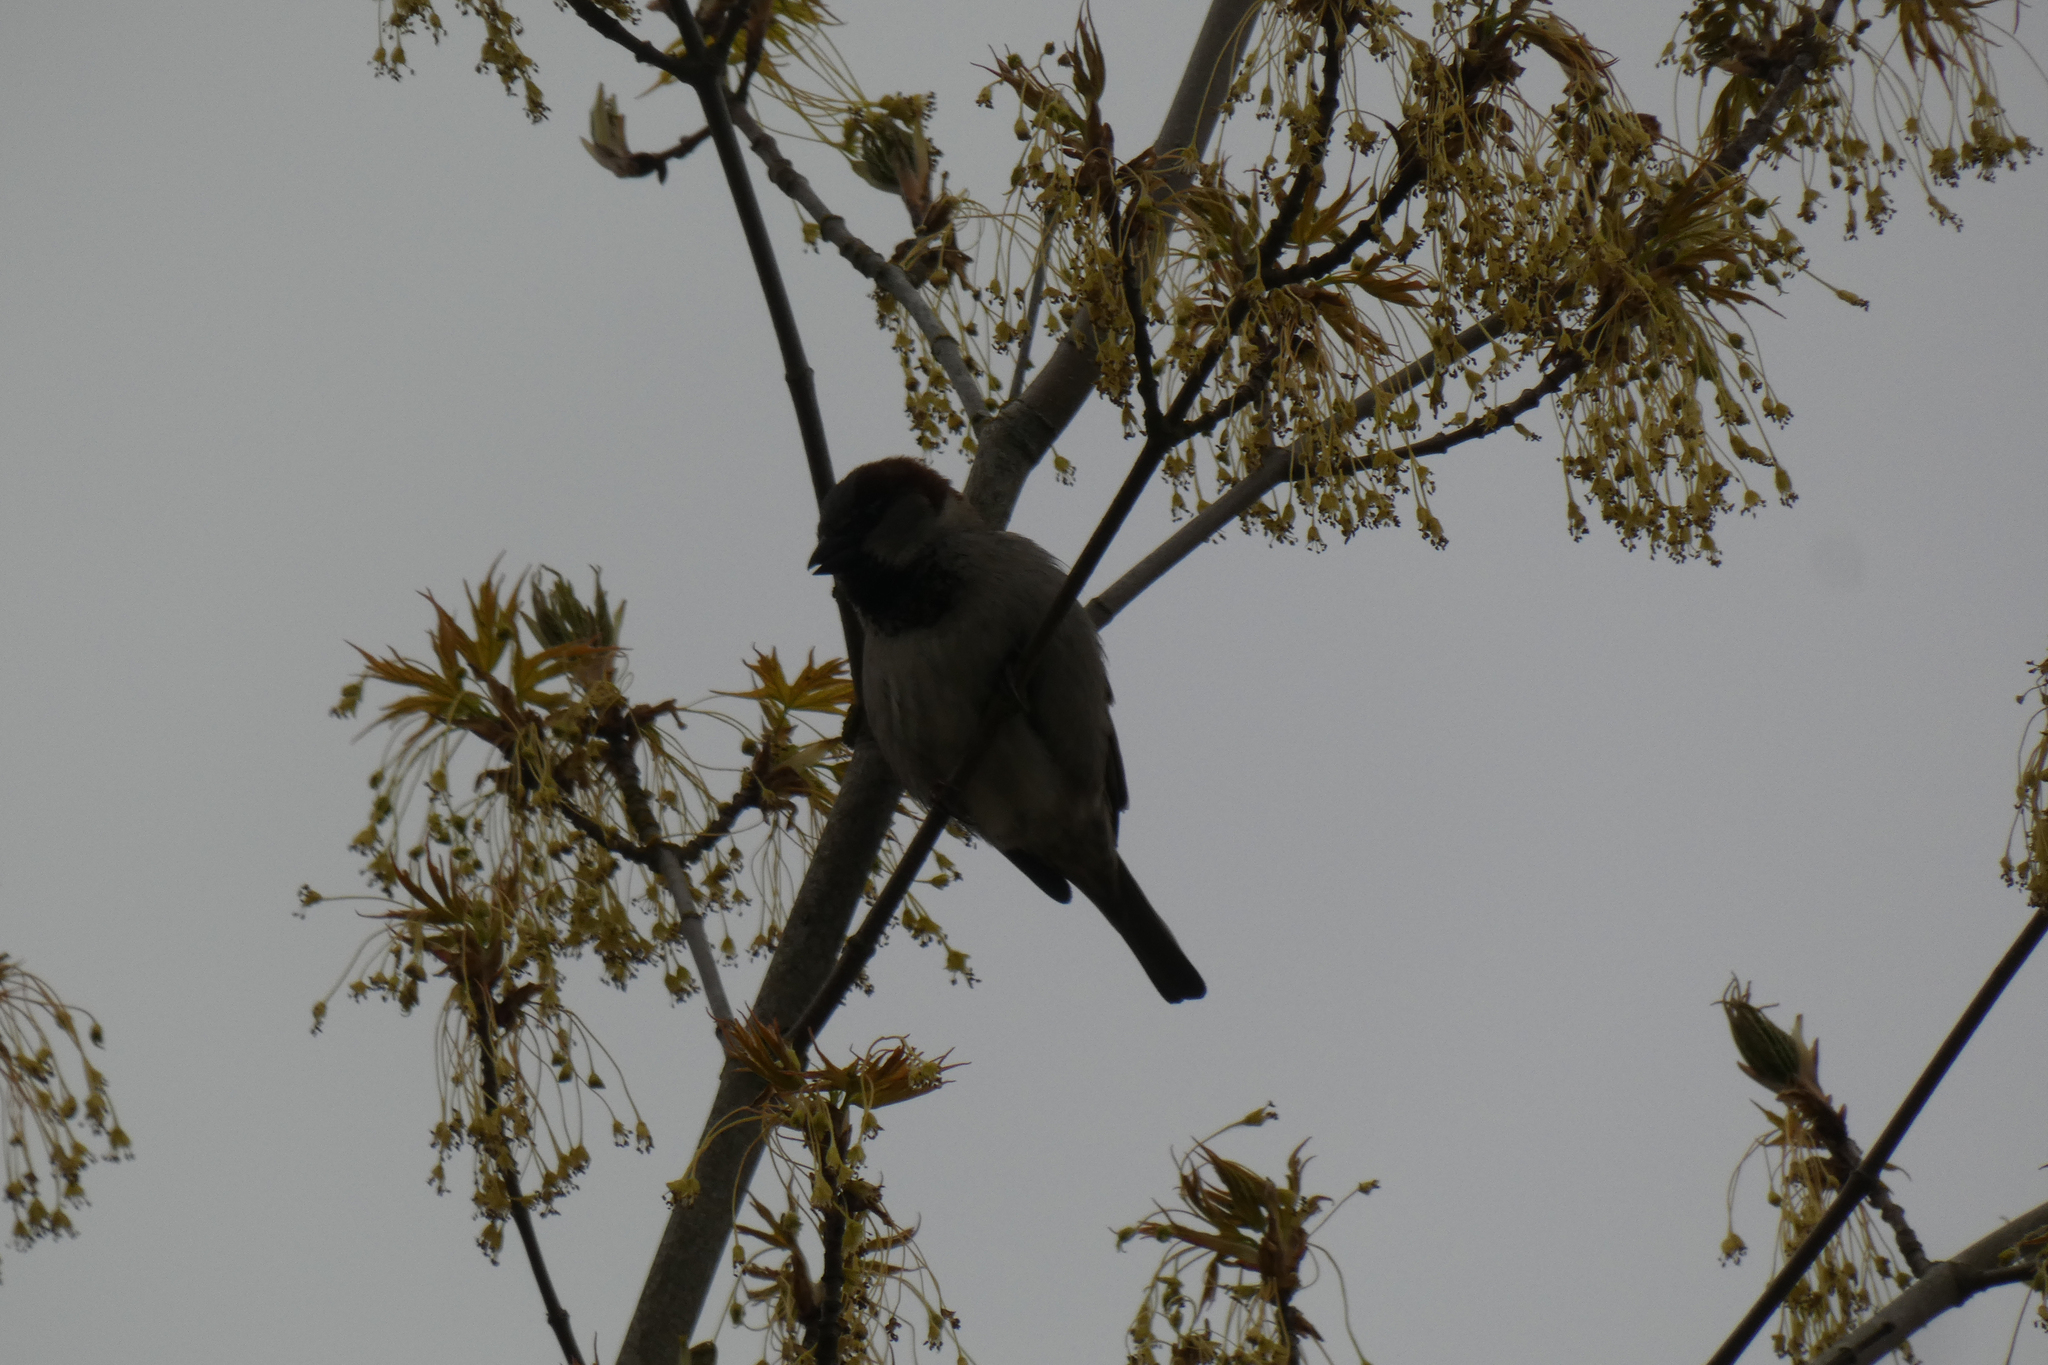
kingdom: Animalia
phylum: Chordata
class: Aves
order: Passeriformes
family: Passeridae
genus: Passer
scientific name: Passer domesticus
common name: House sparrow
